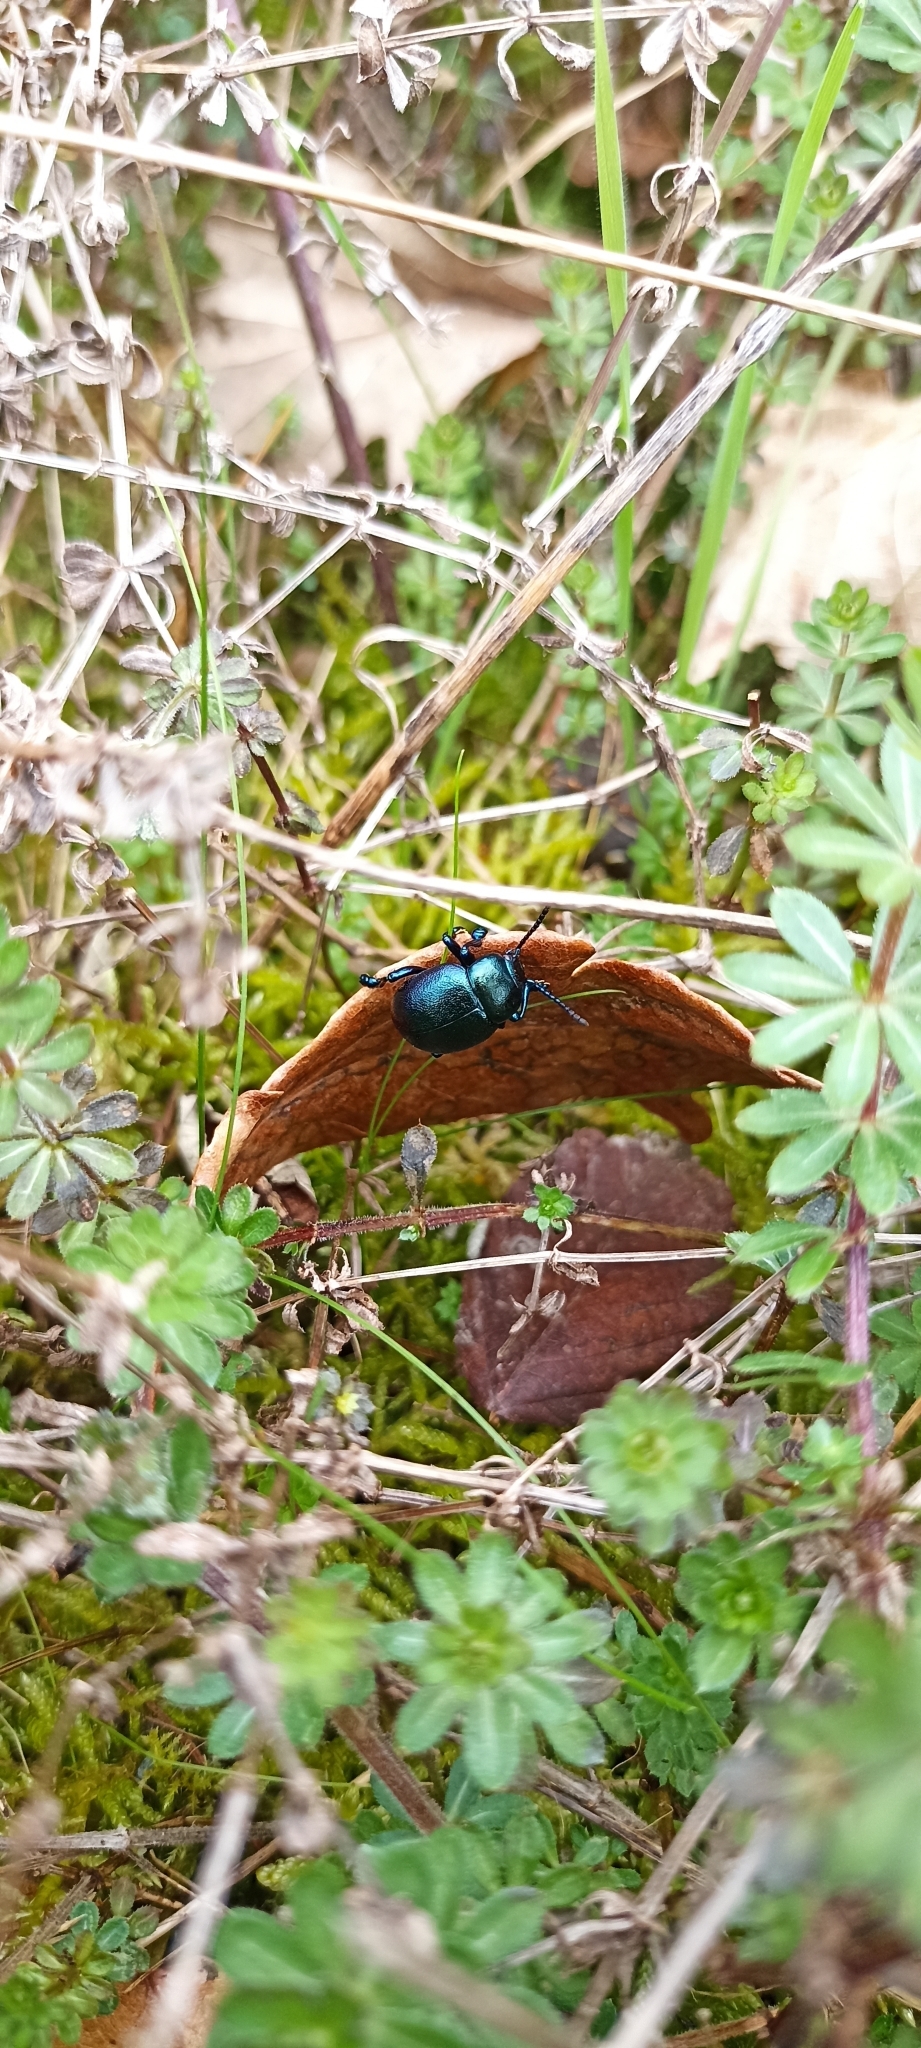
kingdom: Animalia
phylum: Arthropoda
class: Insecta
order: Coleoptera
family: Chrysomelidae
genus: Timarcha
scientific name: Timarcha goettingensis
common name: Small bloody-nosed beetle
